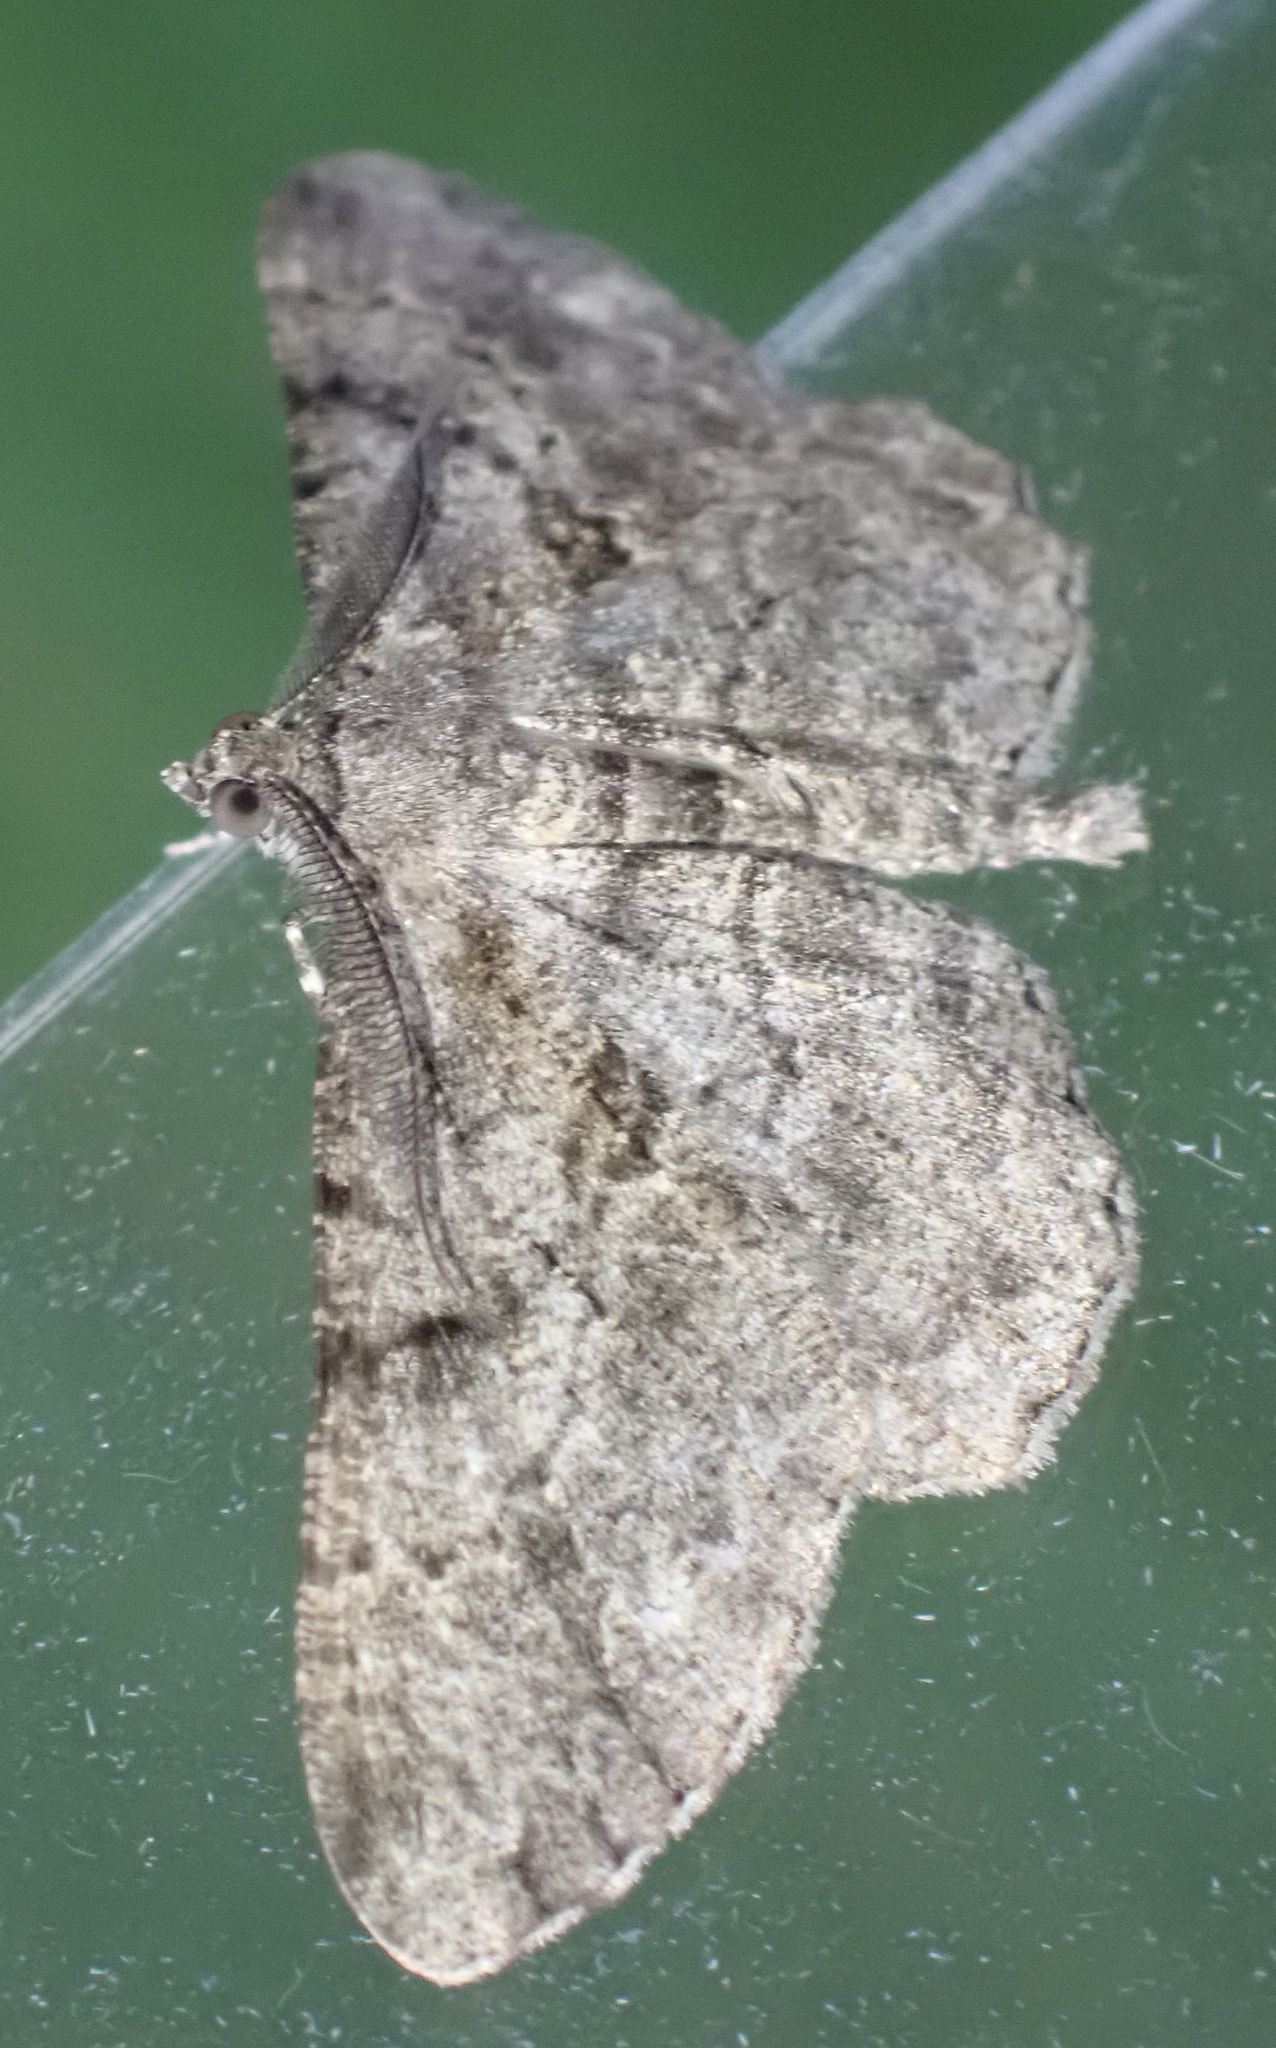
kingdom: Animalia
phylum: Arthropoda
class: Insecta
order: Lepidoptera
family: Geometridae
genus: Peribatodes
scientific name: Peribatodes rhomboidaria
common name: Willow beauty
